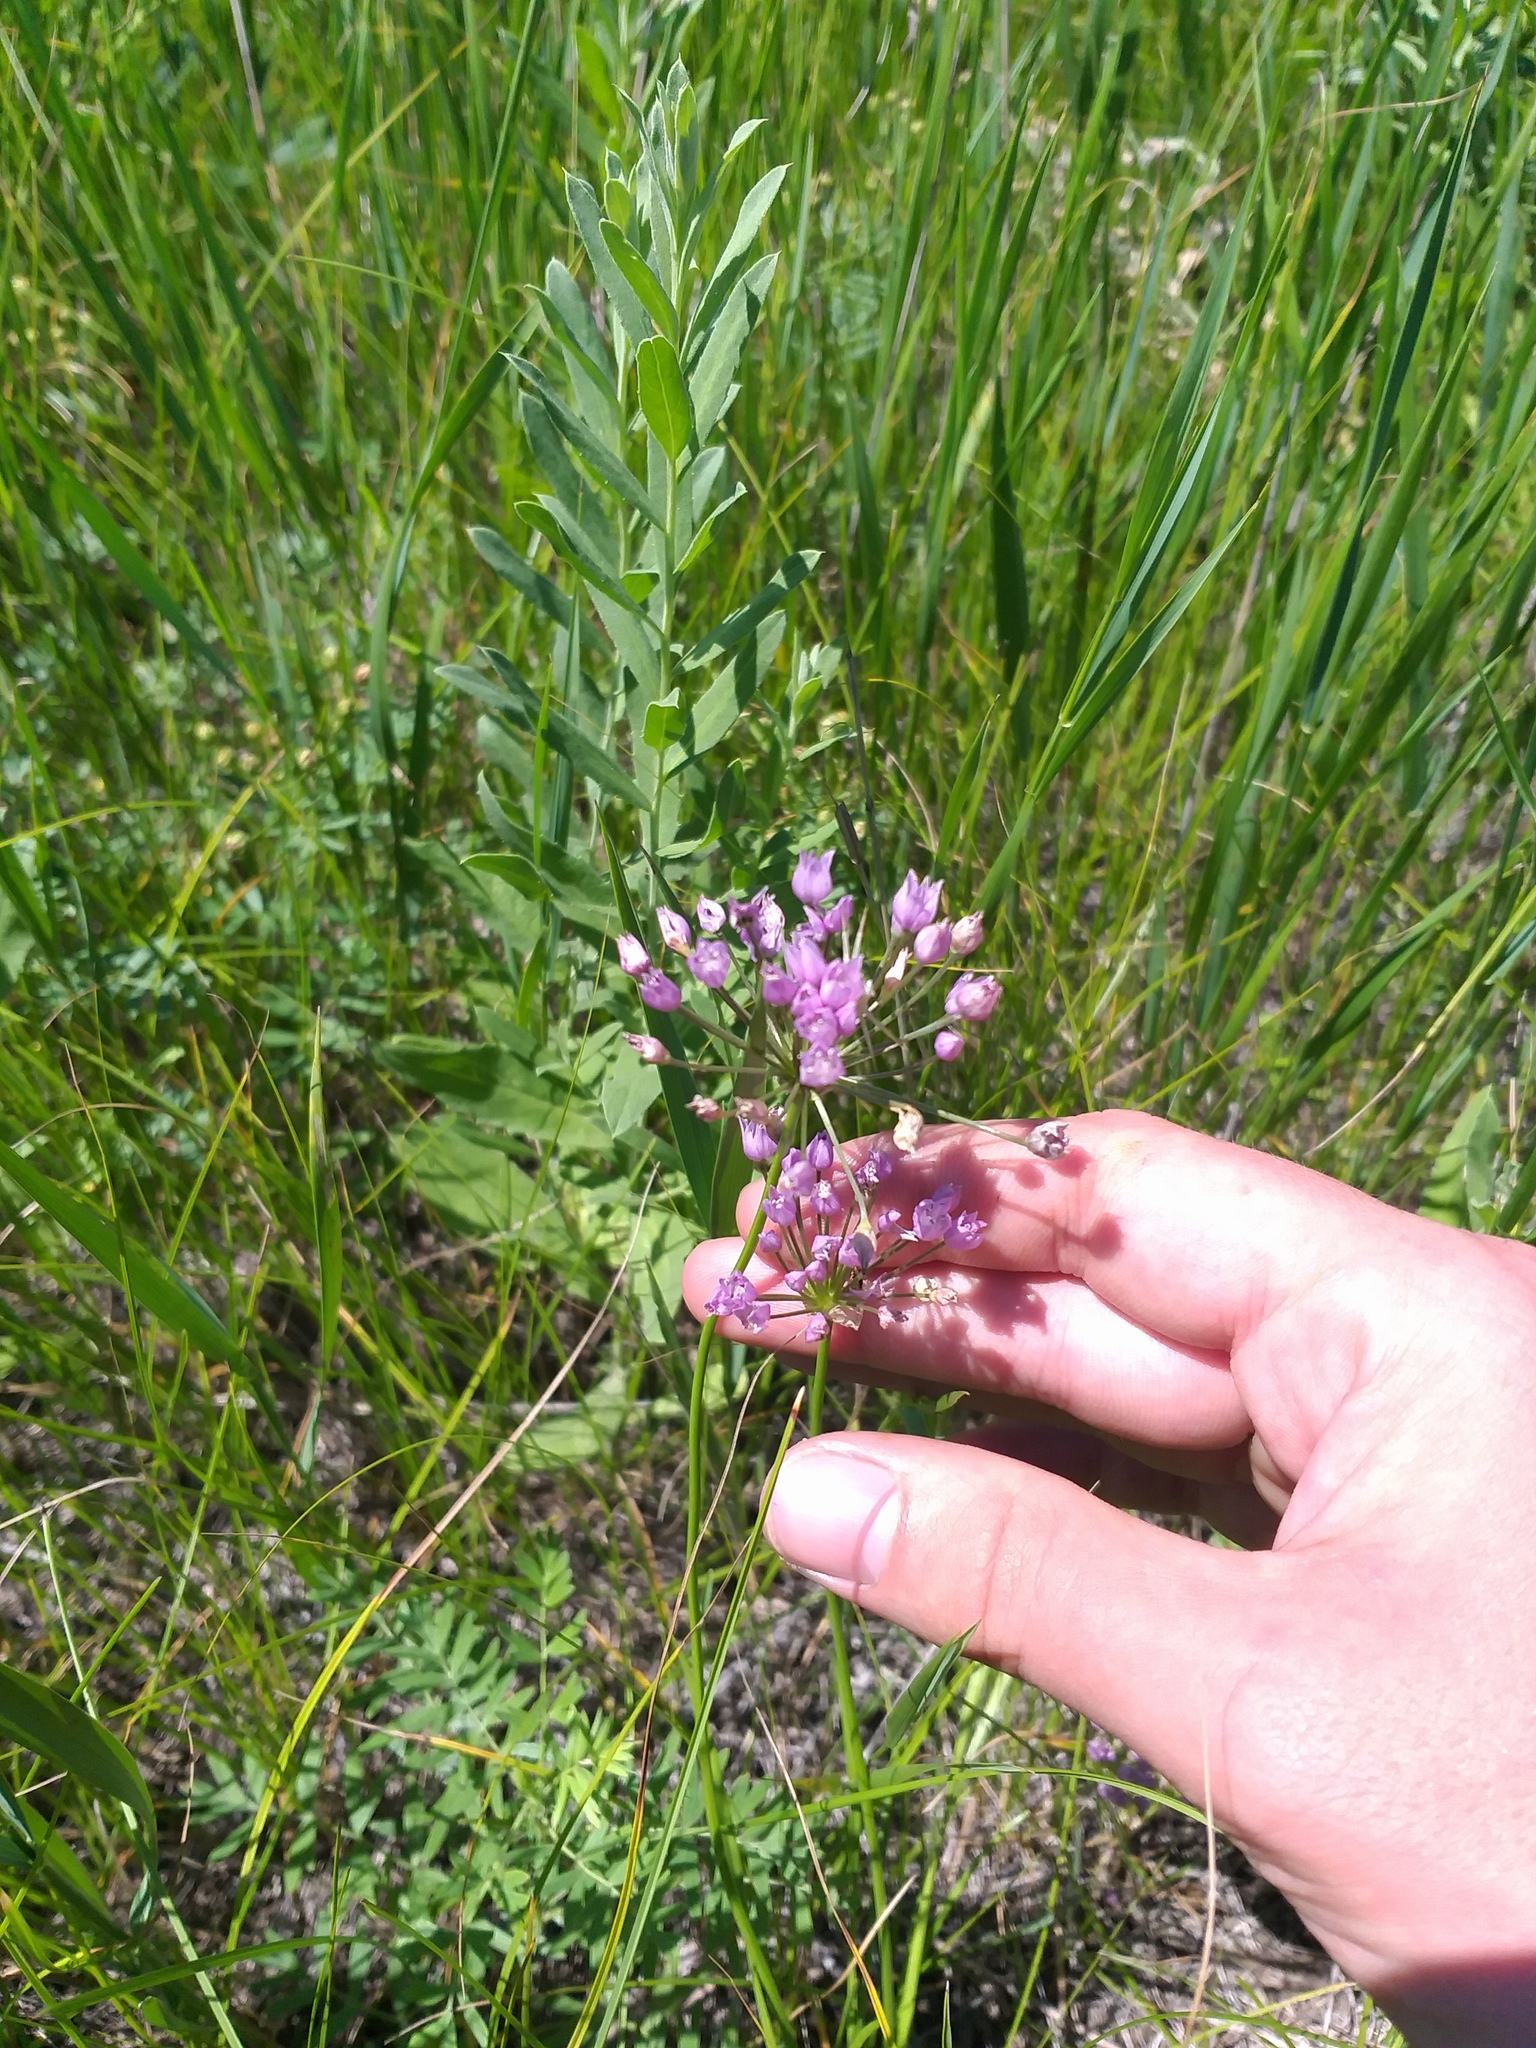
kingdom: Plantae
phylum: Tracheophyta
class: Liliopsida
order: Asparagales
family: Amaryllidaceae
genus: Allium
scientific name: Allium angulosum
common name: Mouse garlic
